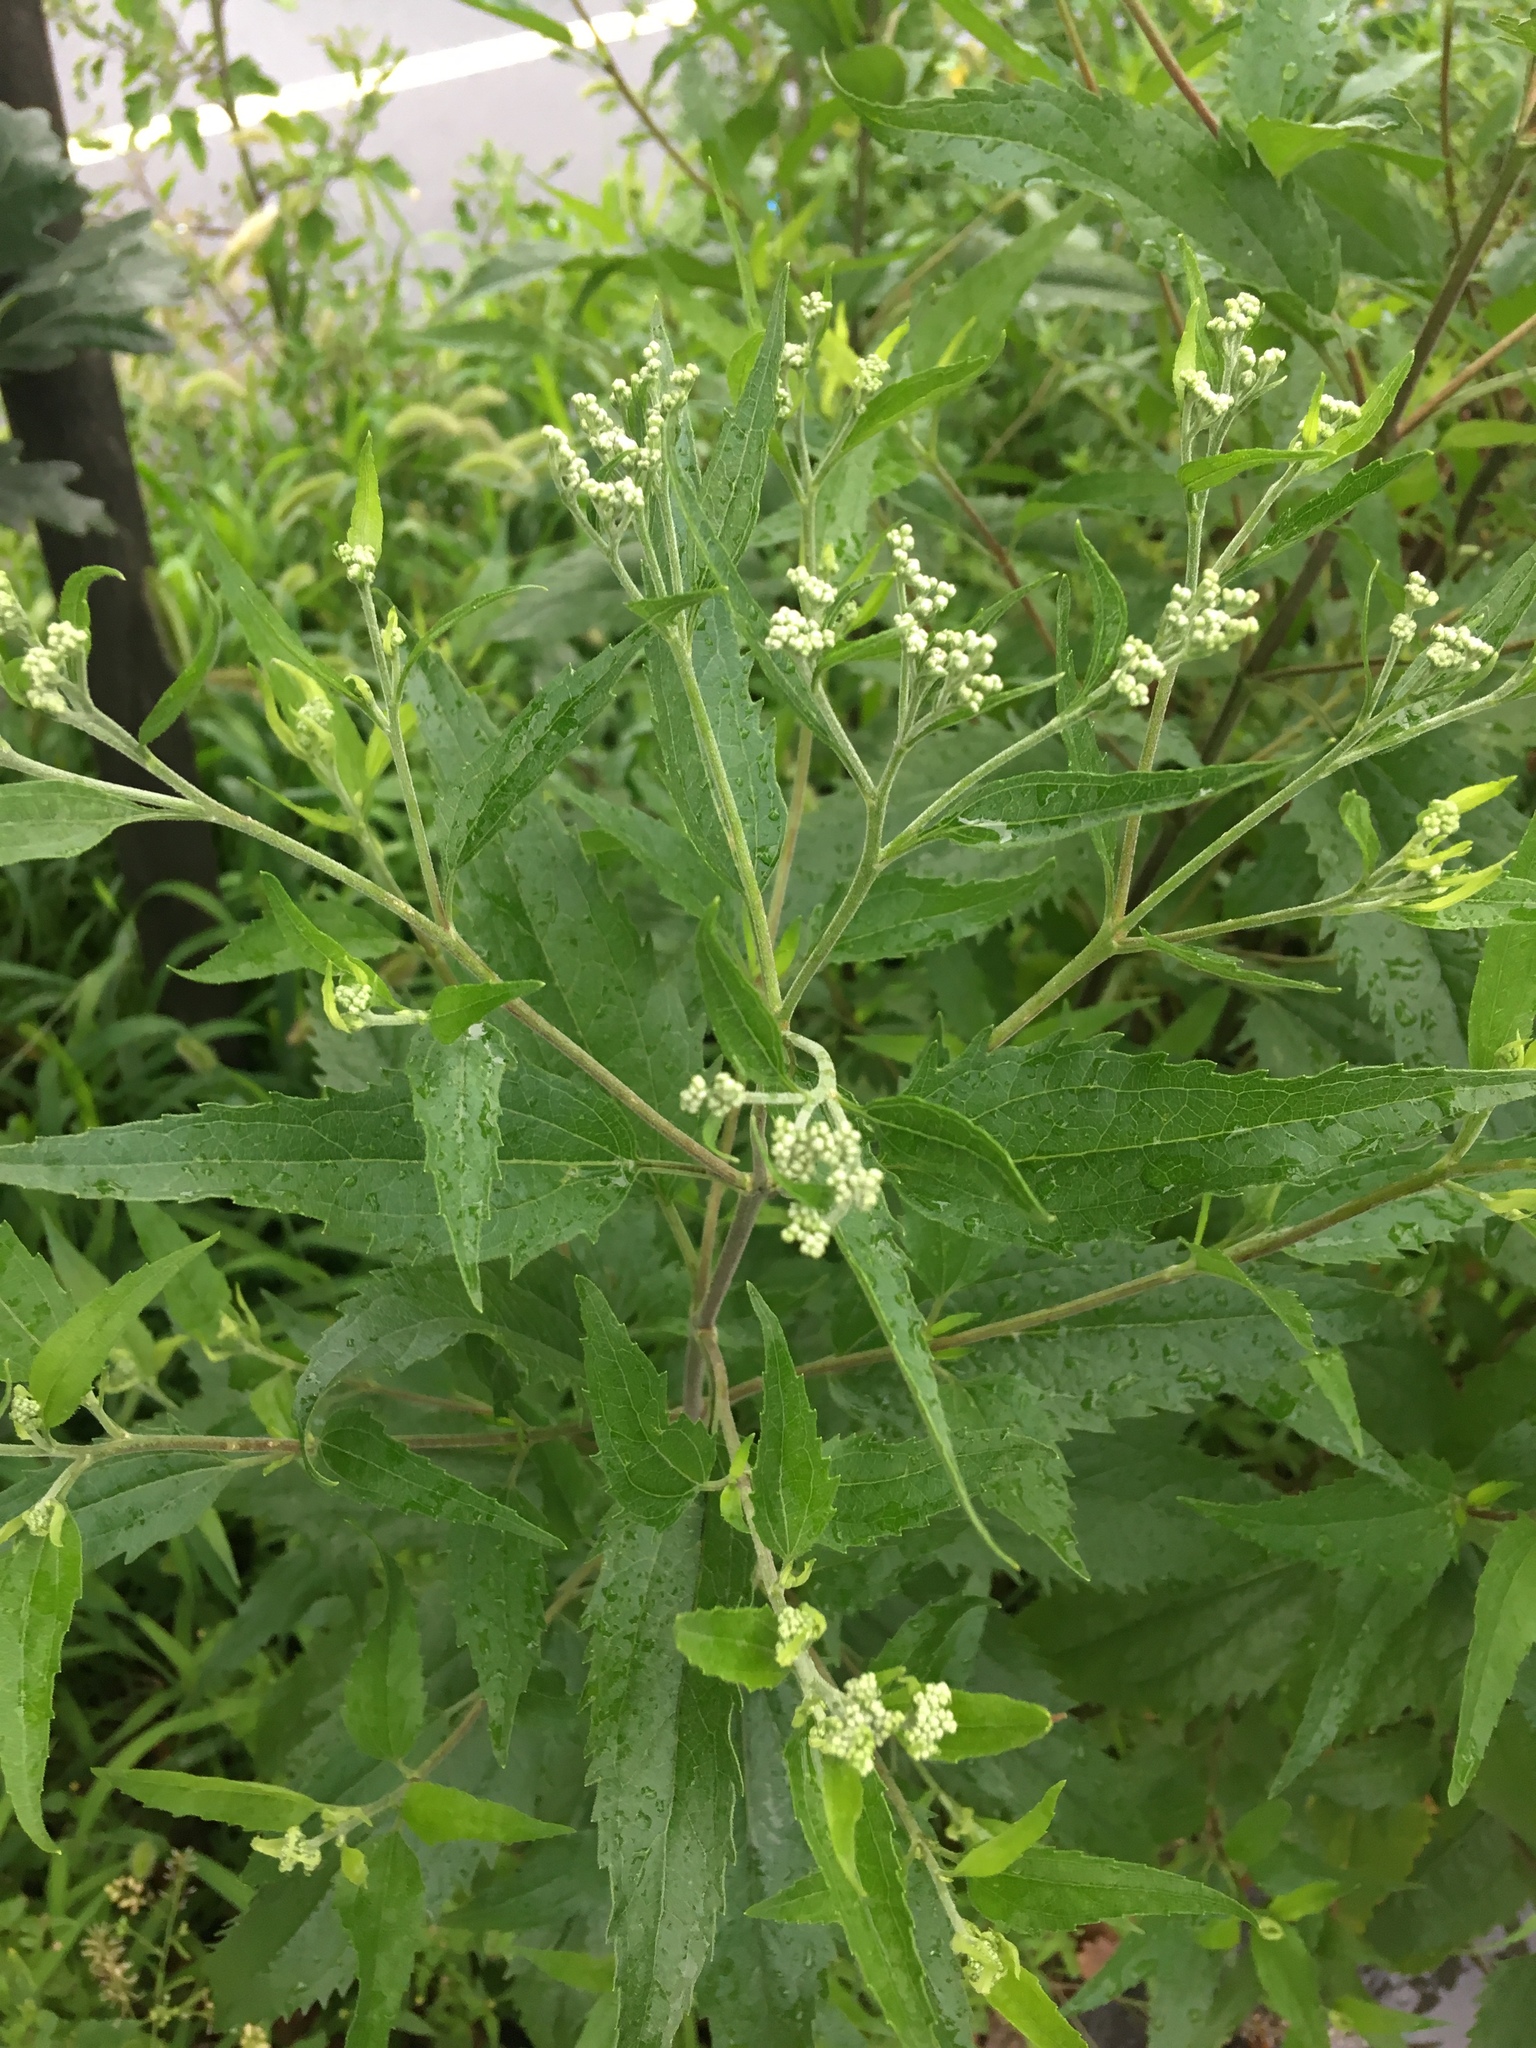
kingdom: Plantae
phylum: Tracheophyta
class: Magnoliopsida
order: Asterales
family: Asteraceae
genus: Eupatorium
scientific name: Eupatorium serotinum
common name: Late boneset
